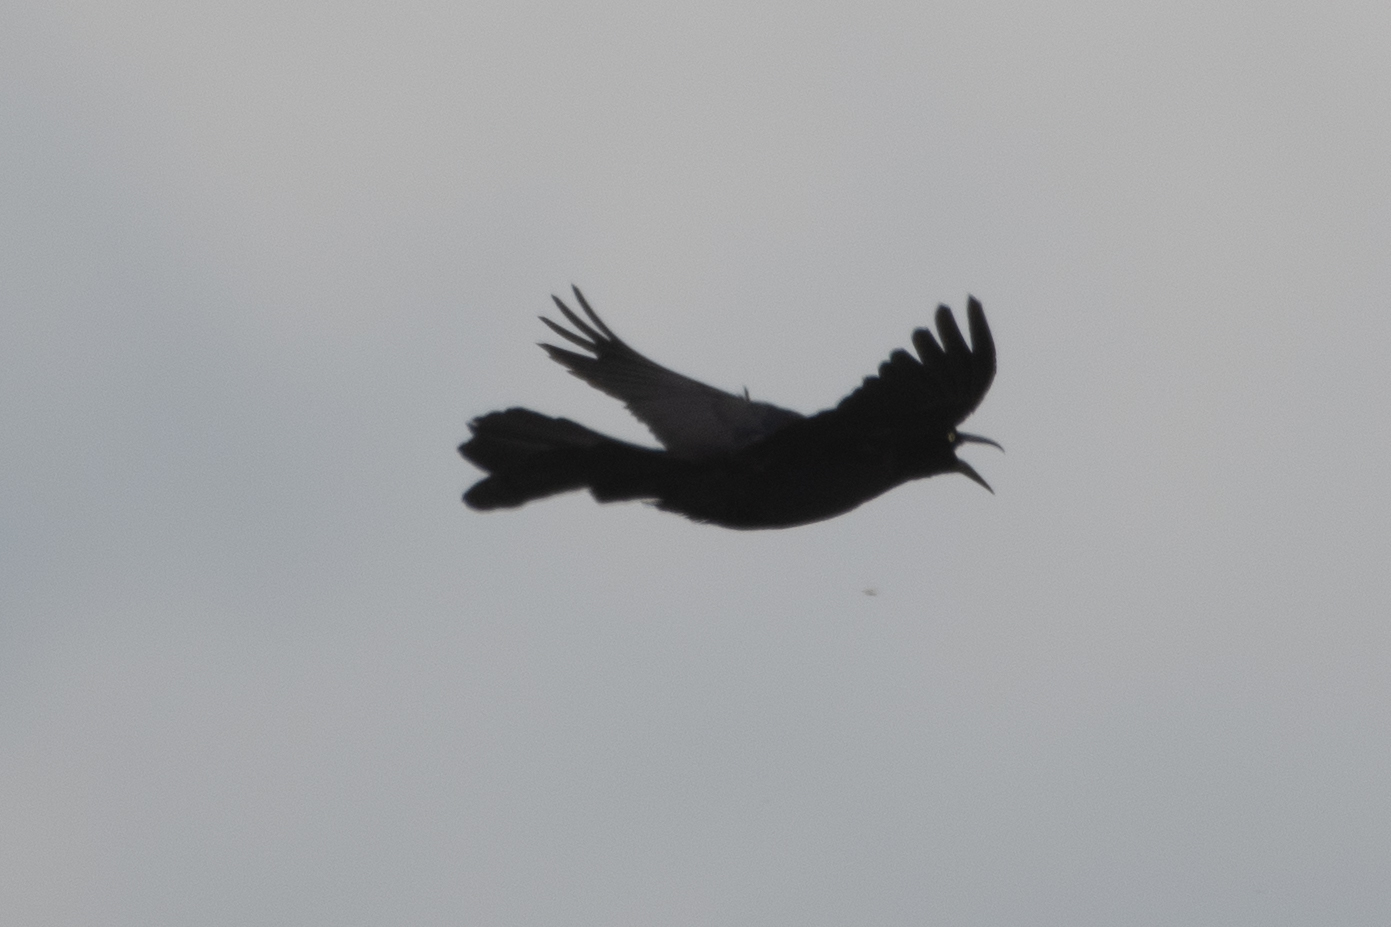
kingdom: Animalia
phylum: Chordata
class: Aves
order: Passeriformes
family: Icteridae
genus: Quiscalus
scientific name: Quiscalus mexicanus
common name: Great-tailed grackle
